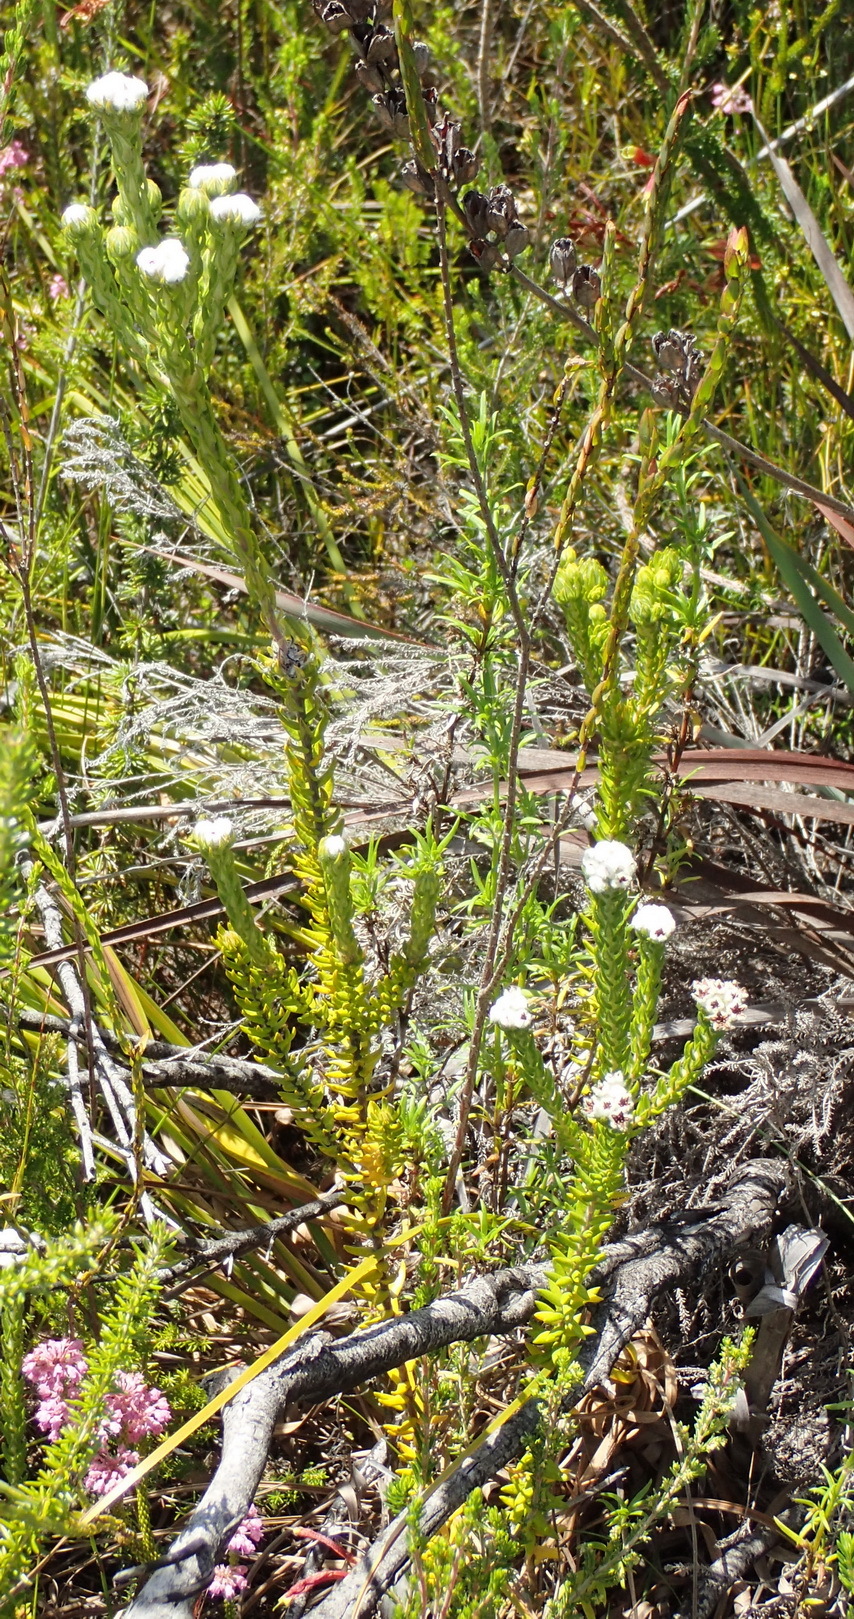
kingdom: Plantae
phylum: Tracheophyta
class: Magnoliopsida
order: Rosales
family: Rhamnaceae
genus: Phylica
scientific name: Phylica purpurea
